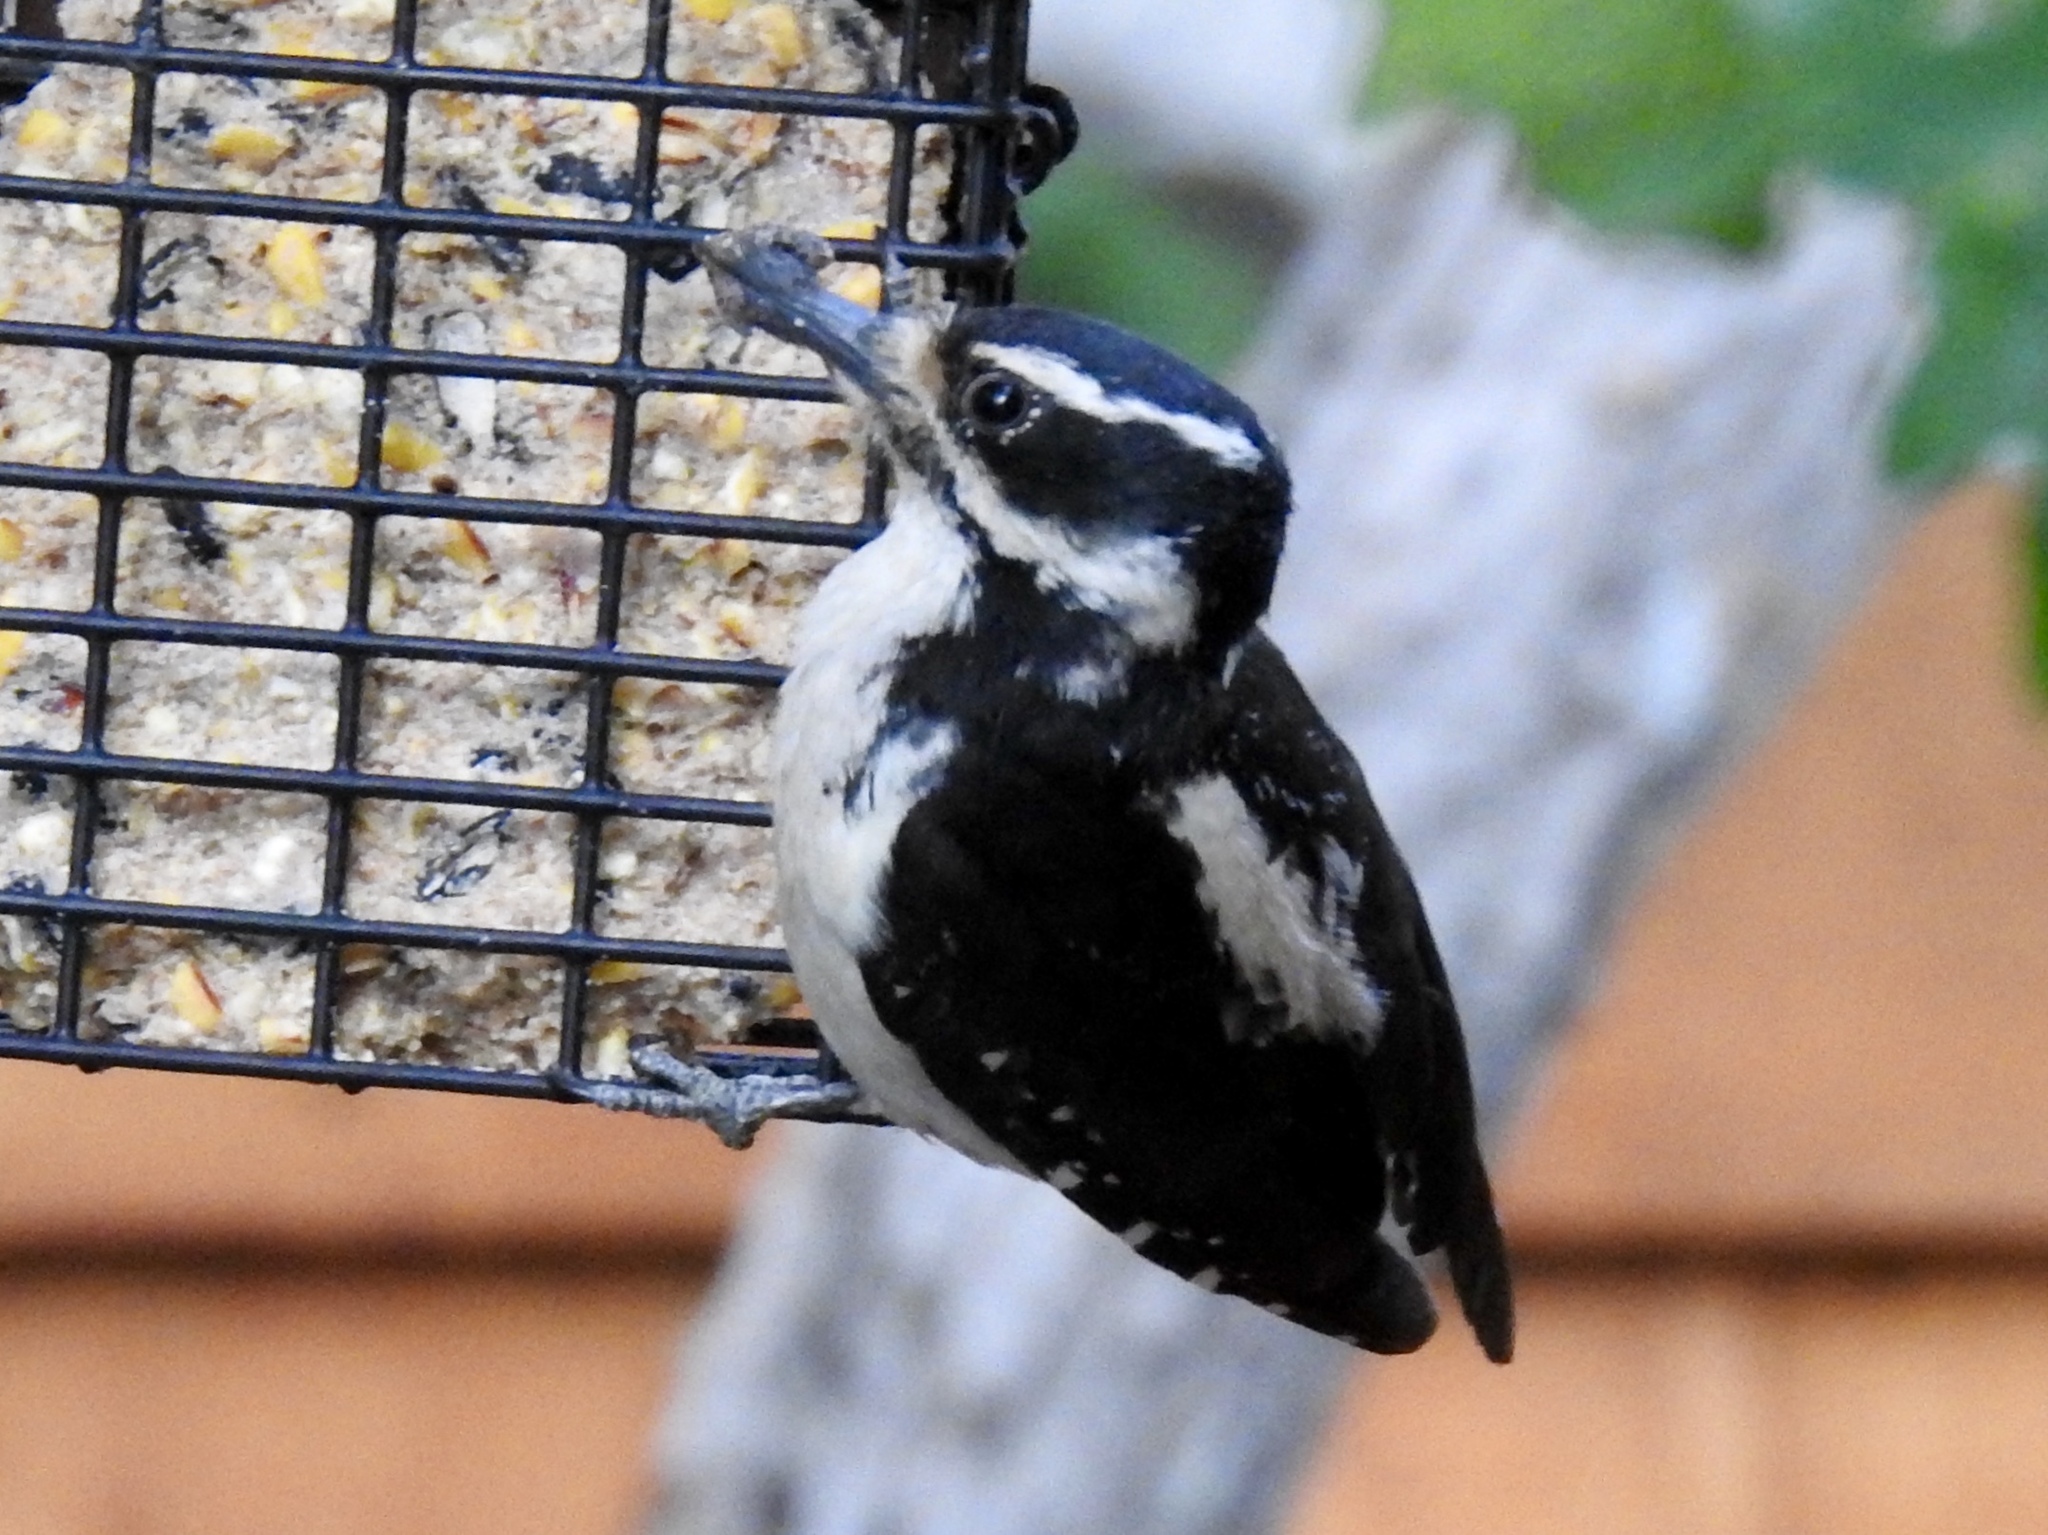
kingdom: Animalia
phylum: Chordata
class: Aves
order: Piciformes
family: Picidae
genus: Leuconotopicus
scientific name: Leuconotopicus villosus
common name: Hairy woodpecker
